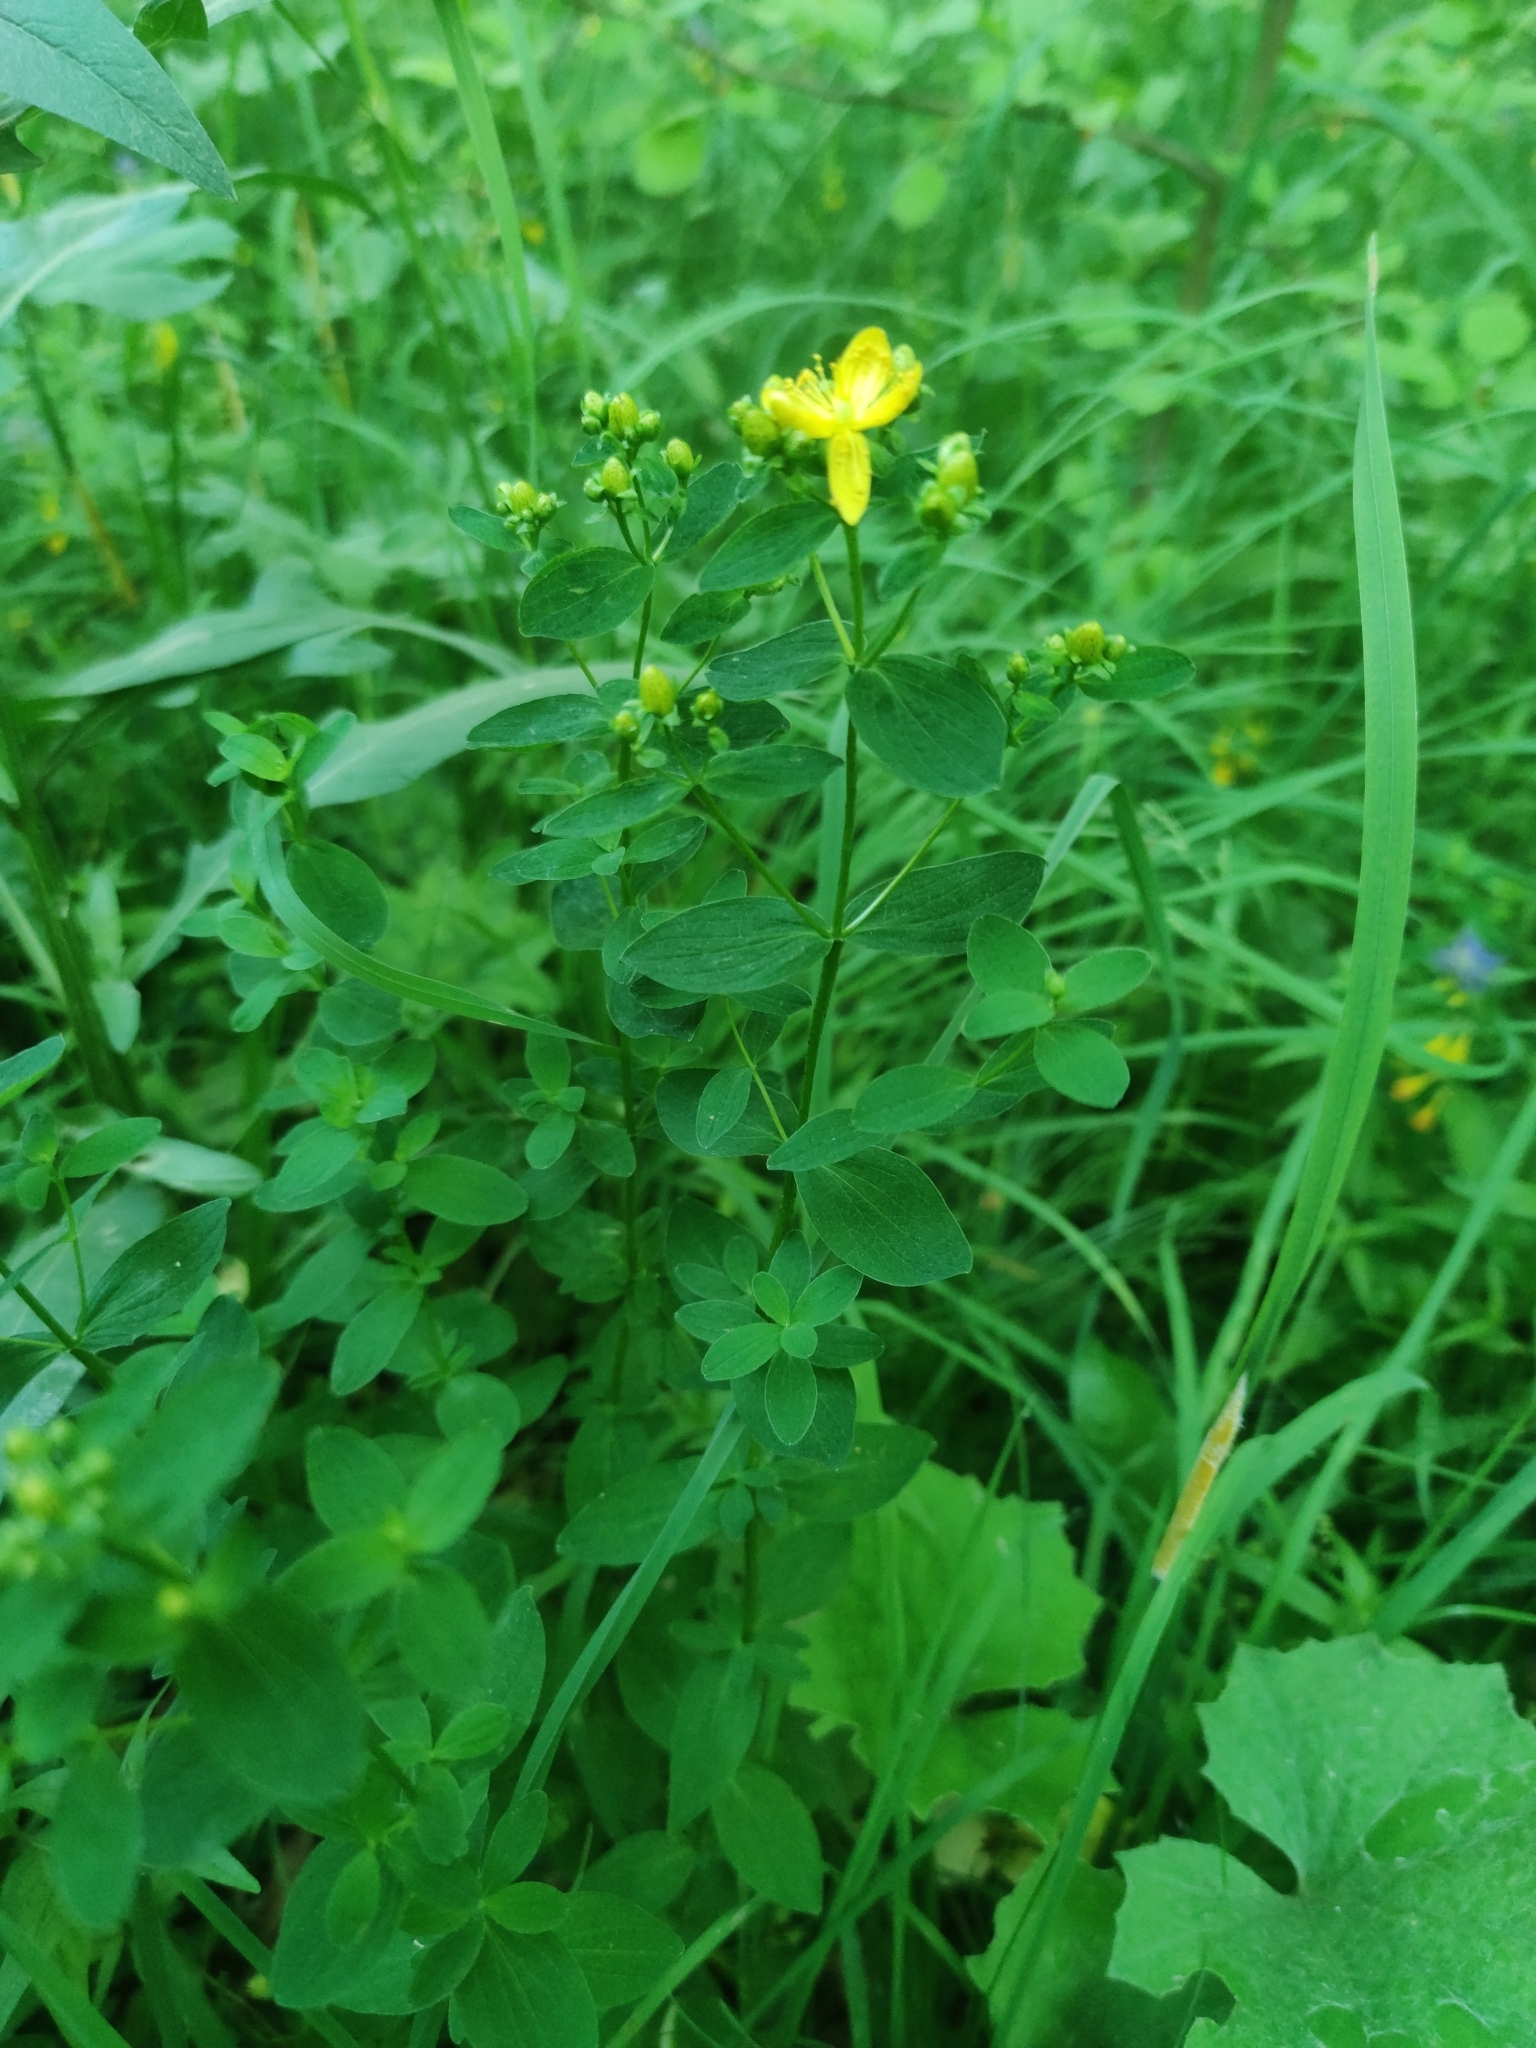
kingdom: Plantae
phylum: Tracheophyta
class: Magnoliopsida
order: Malpighiales
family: Hypericaceae
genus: Hypericum
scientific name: Hypericum maculatum
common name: Imperforate st. john's-wort
